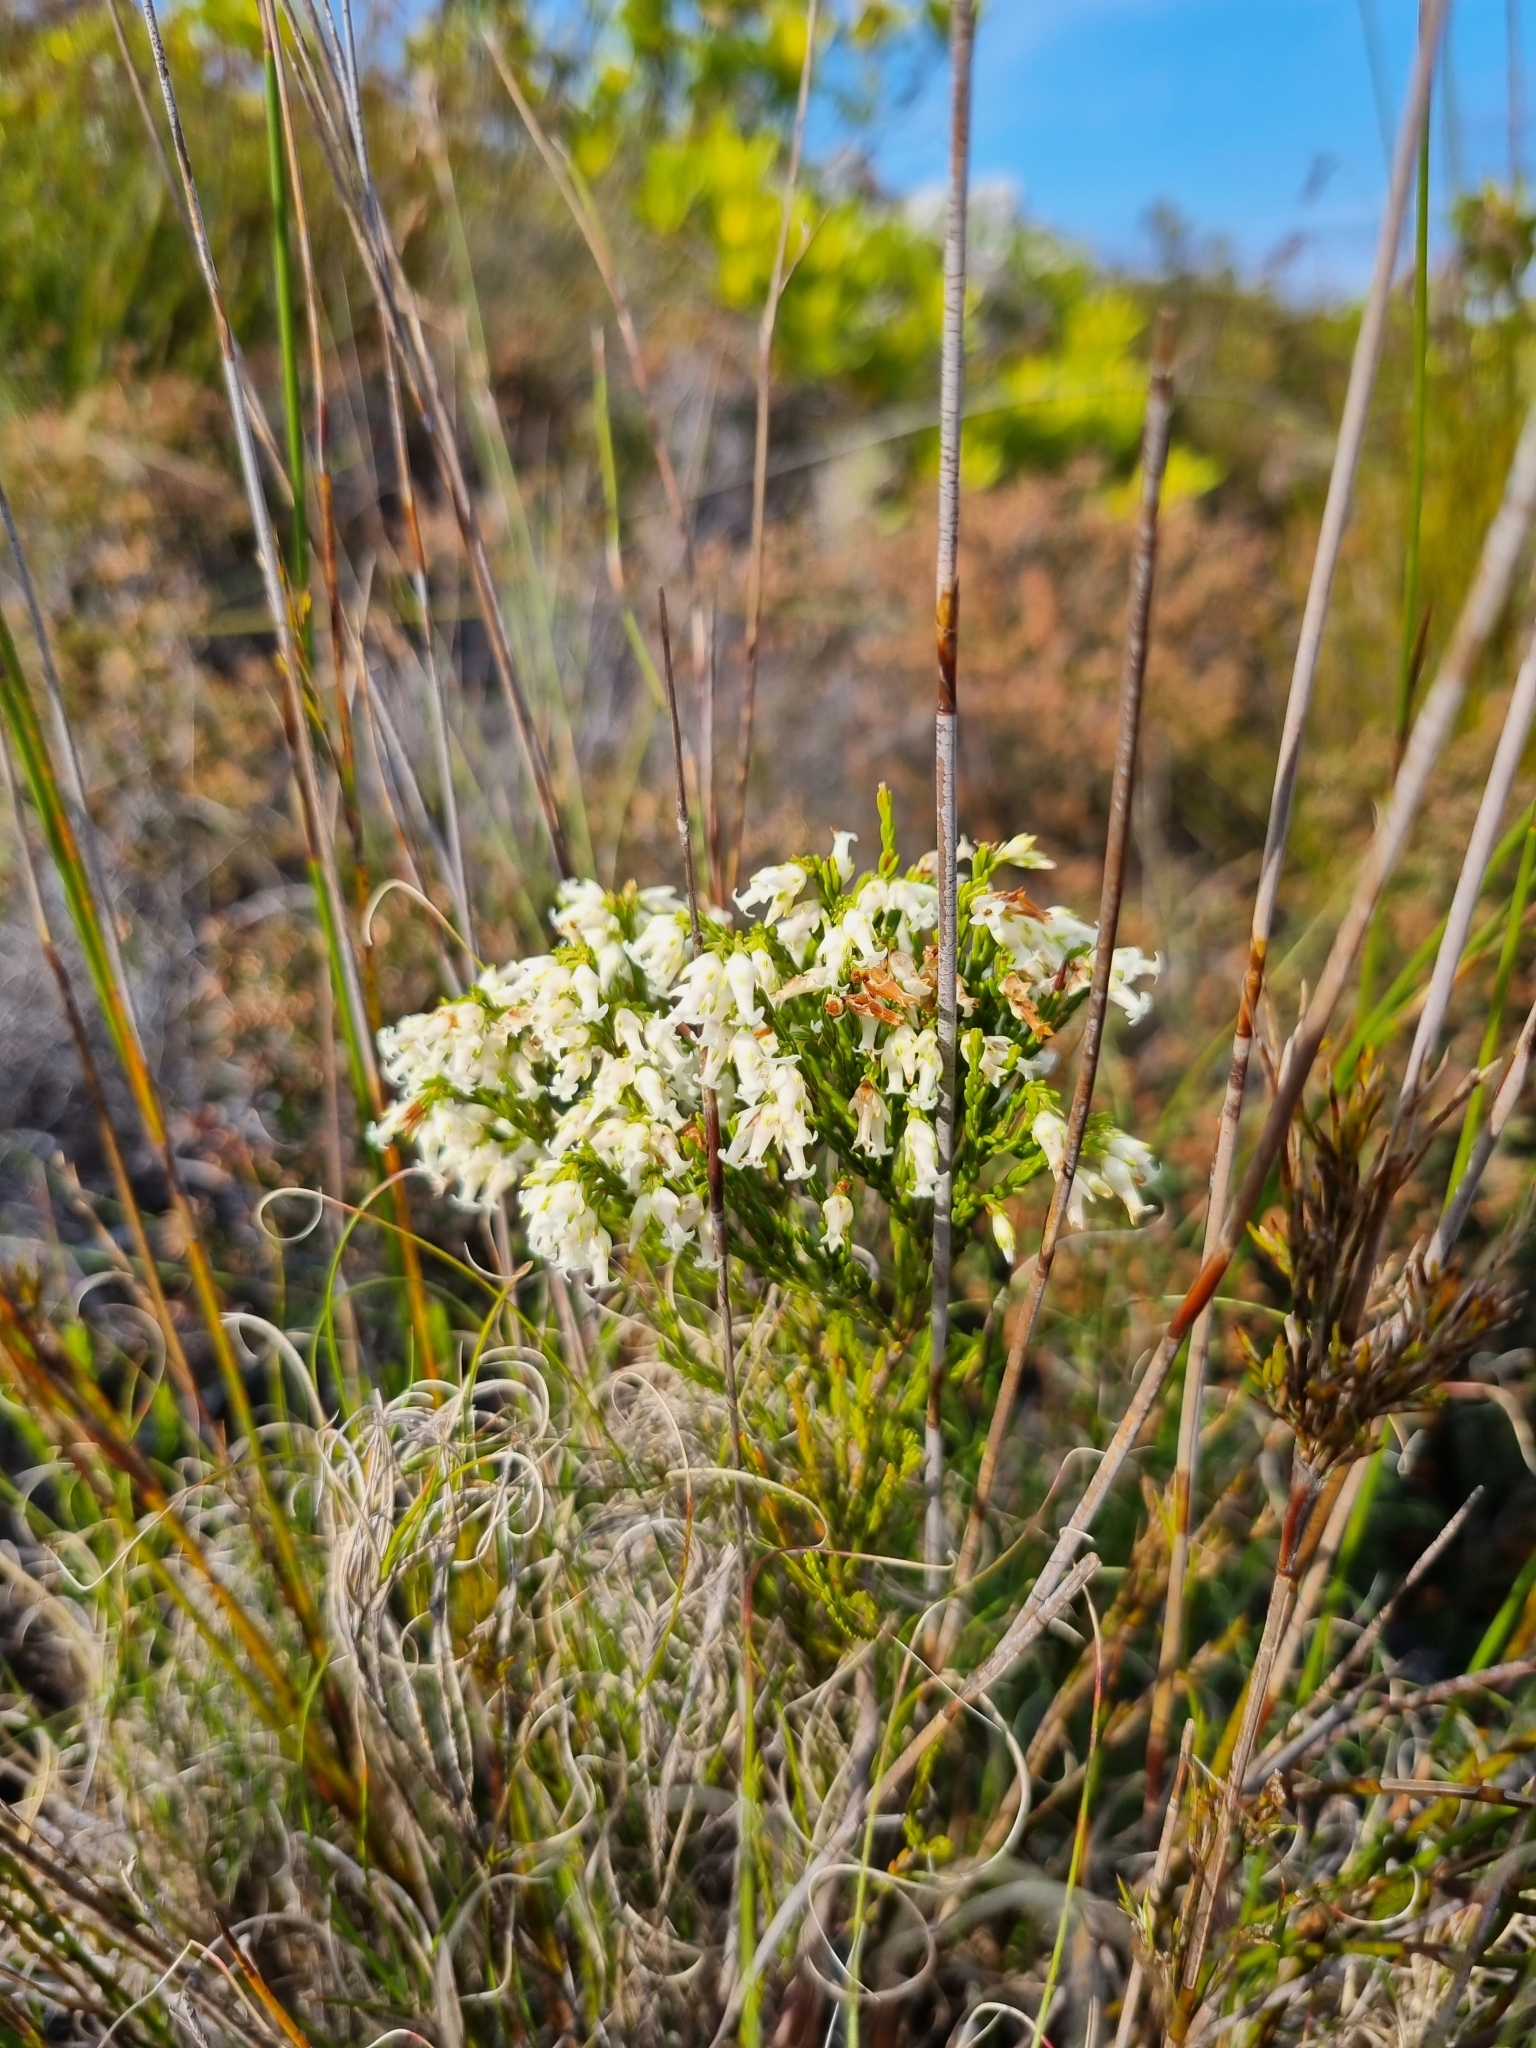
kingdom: Plantae
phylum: Tracheophyta
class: Magnoliopsida
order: Ericales
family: Ericaceae
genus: Erica
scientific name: Erica lutea
